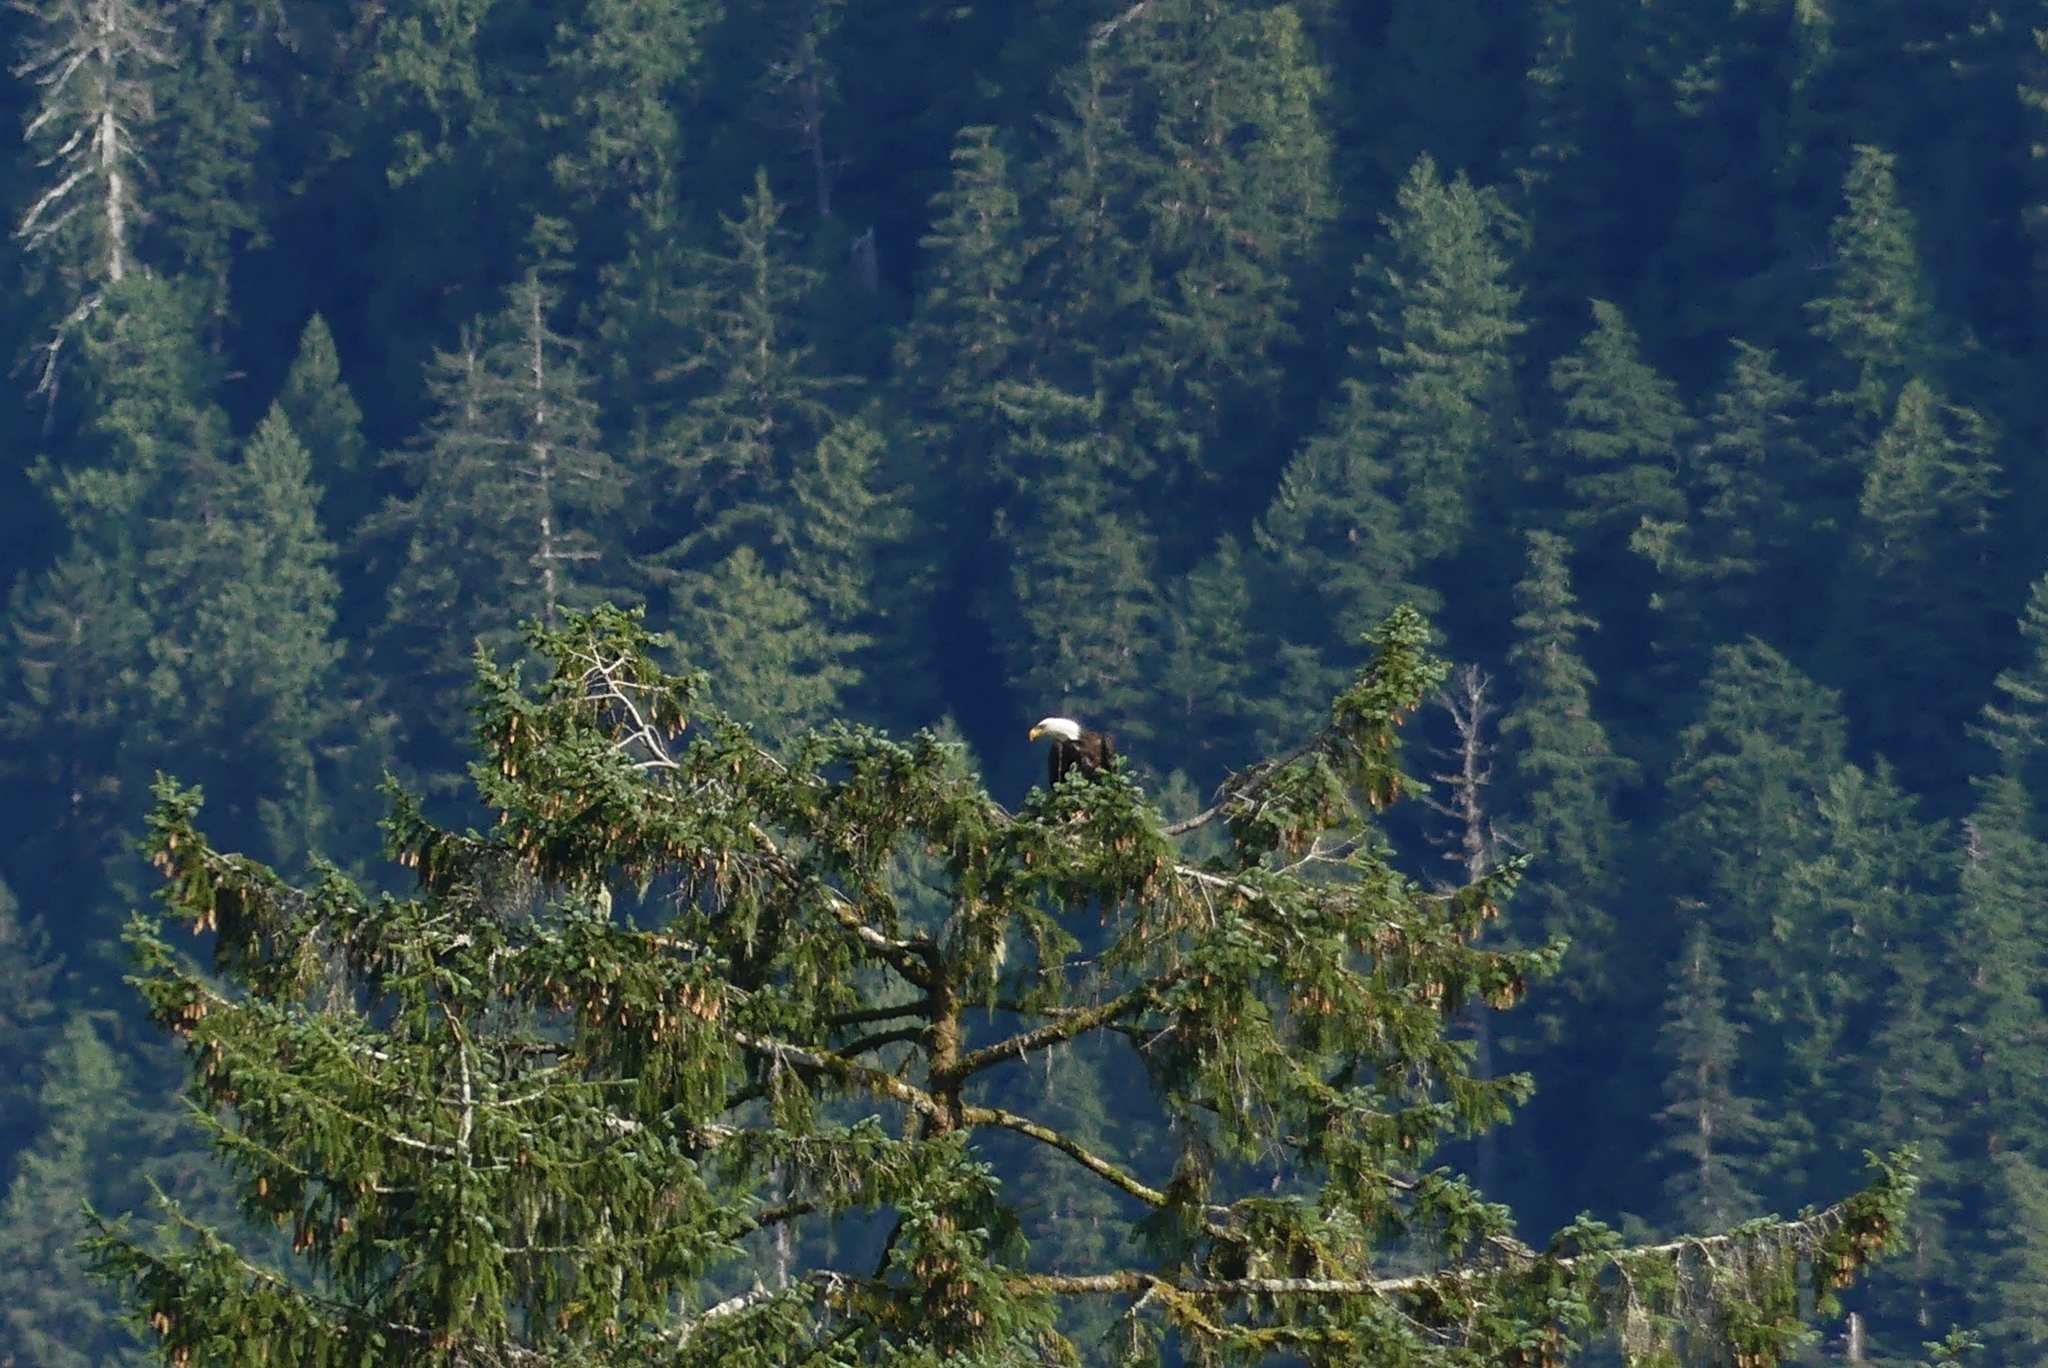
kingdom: Animalia
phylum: Chordata
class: Aves
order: Accipitriformes
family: Accipitridae
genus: Haliaeetus
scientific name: Haliaeetus leucocephalus
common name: Bald eagle
